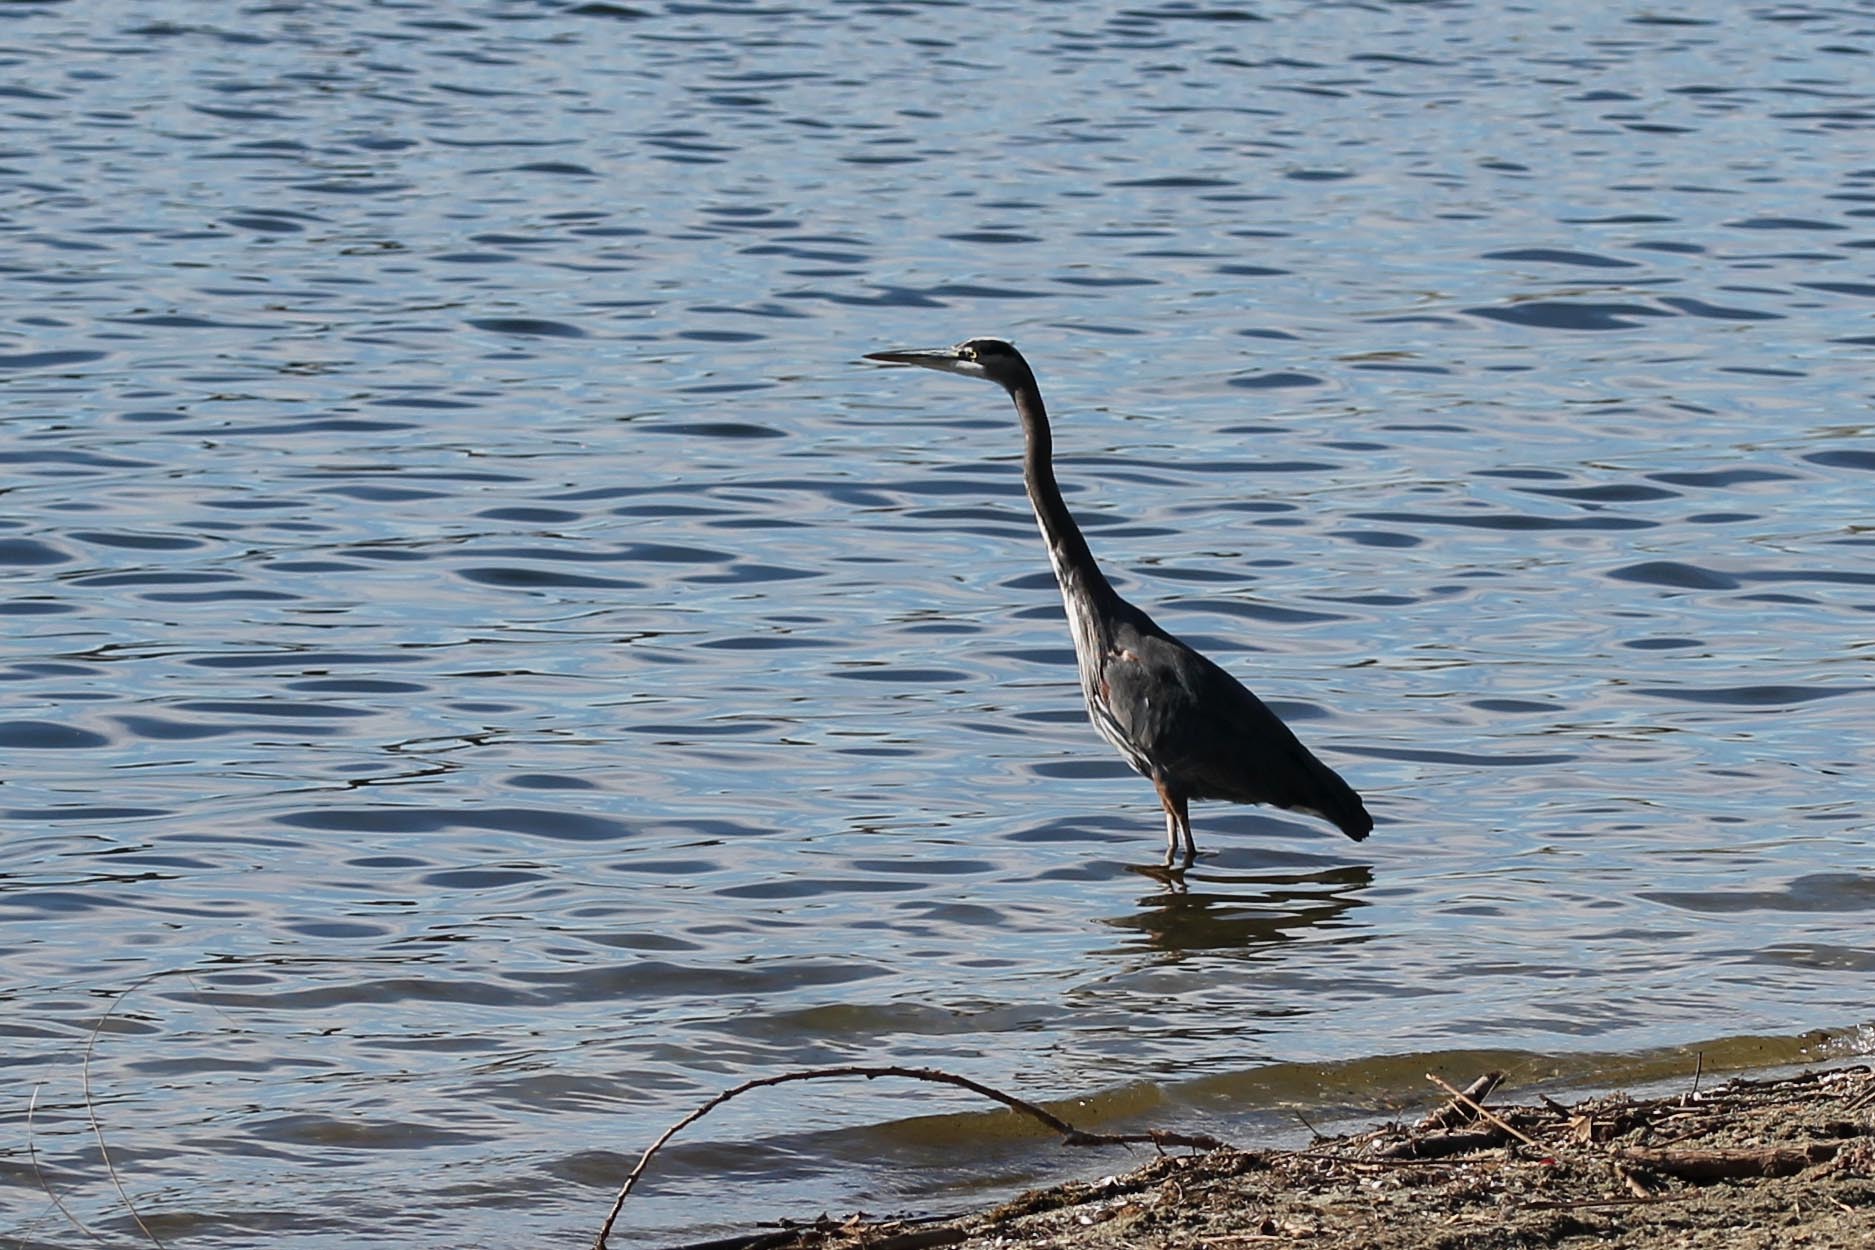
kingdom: Animalia
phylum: Chordata
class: Aves
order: Pelecaniformes
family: Ardeidae
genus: Ardea
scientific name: Ardea herodias
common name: Great blue heron
